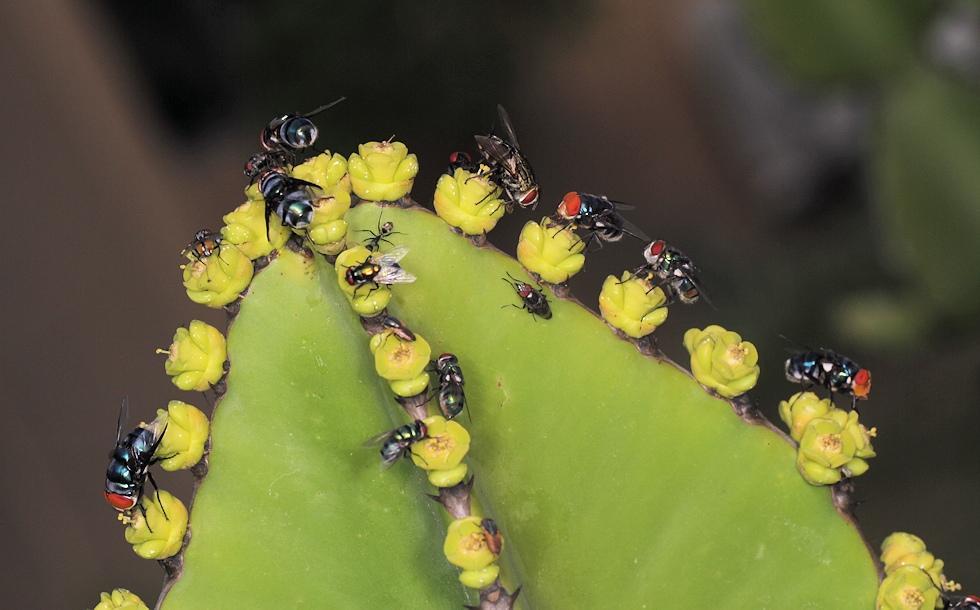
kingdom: Plantae
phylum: Tracheophyta
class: Magnoliopsida
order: Malpighiales
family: Euphorbiaceae
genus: Euphorbia
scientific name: Euphorbia cooperi
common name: Candelabra tree
